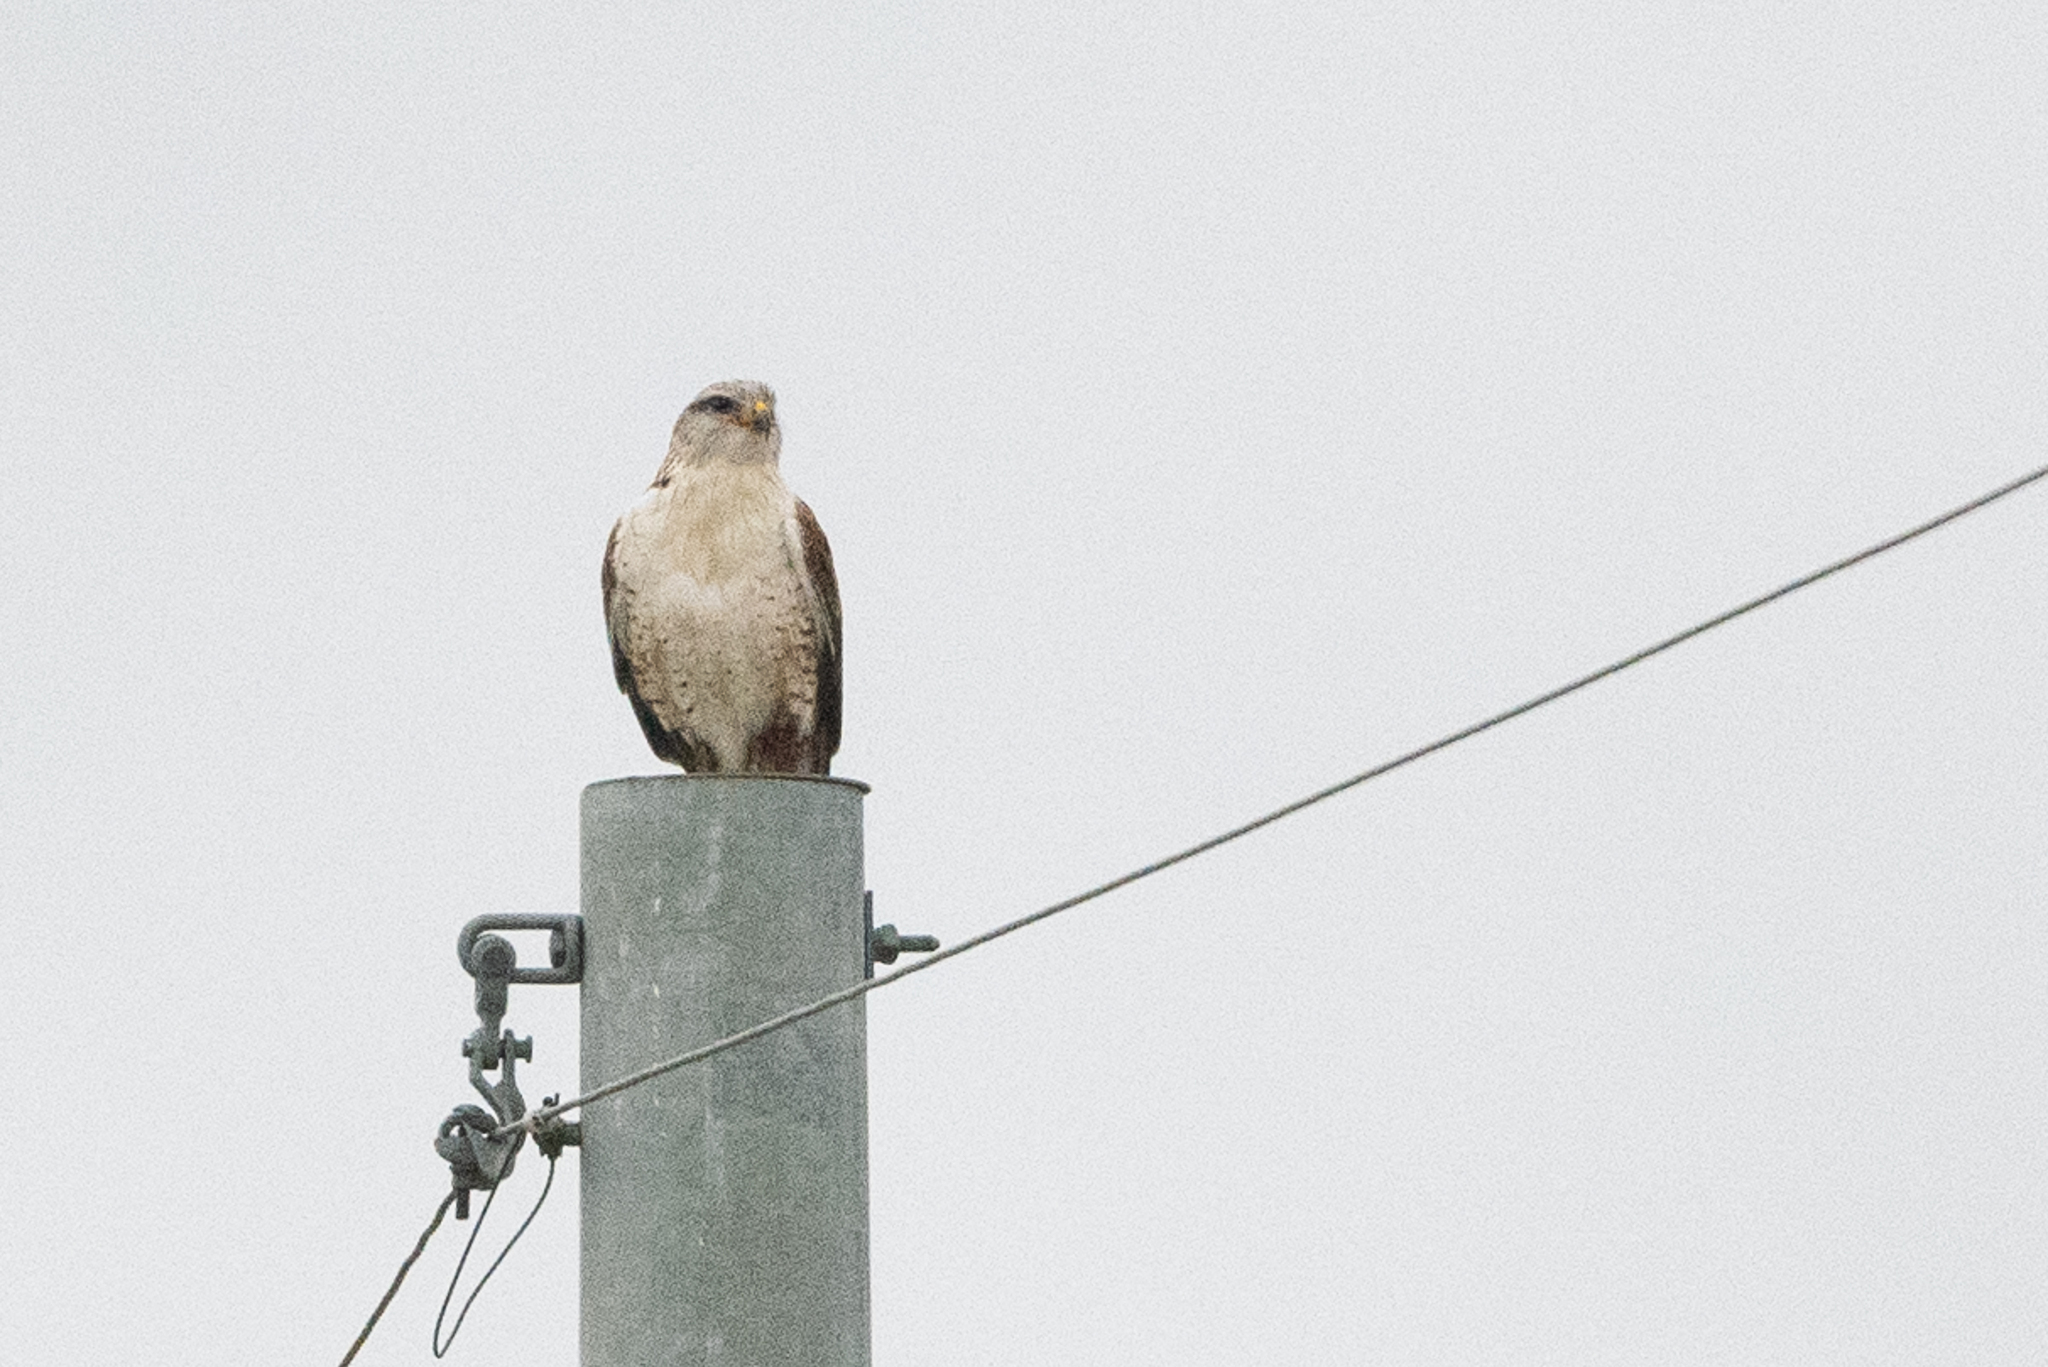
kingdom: Animalia
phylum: Chordata
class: Aves
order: Accipitriformes
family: Accipitridae
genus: Buteo
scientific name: Buteo regalis
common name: Ferruginous hawk
